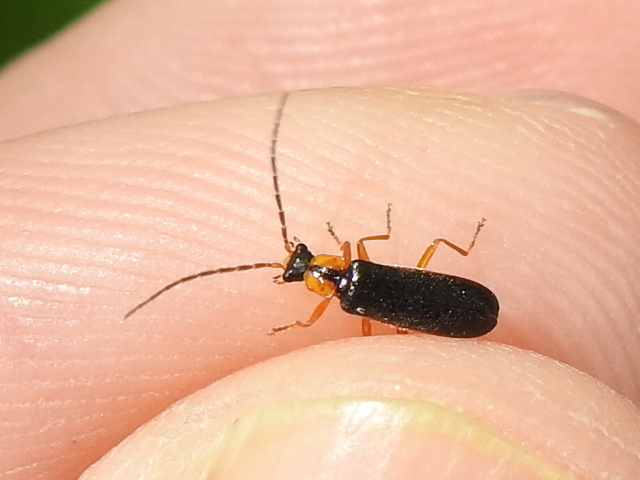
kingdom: Animalia
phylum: Arthropoda
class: Insecta
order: Coleoptera
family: Cantharidae
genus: Rhagonycha
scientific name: Rhagonycha oriflava
